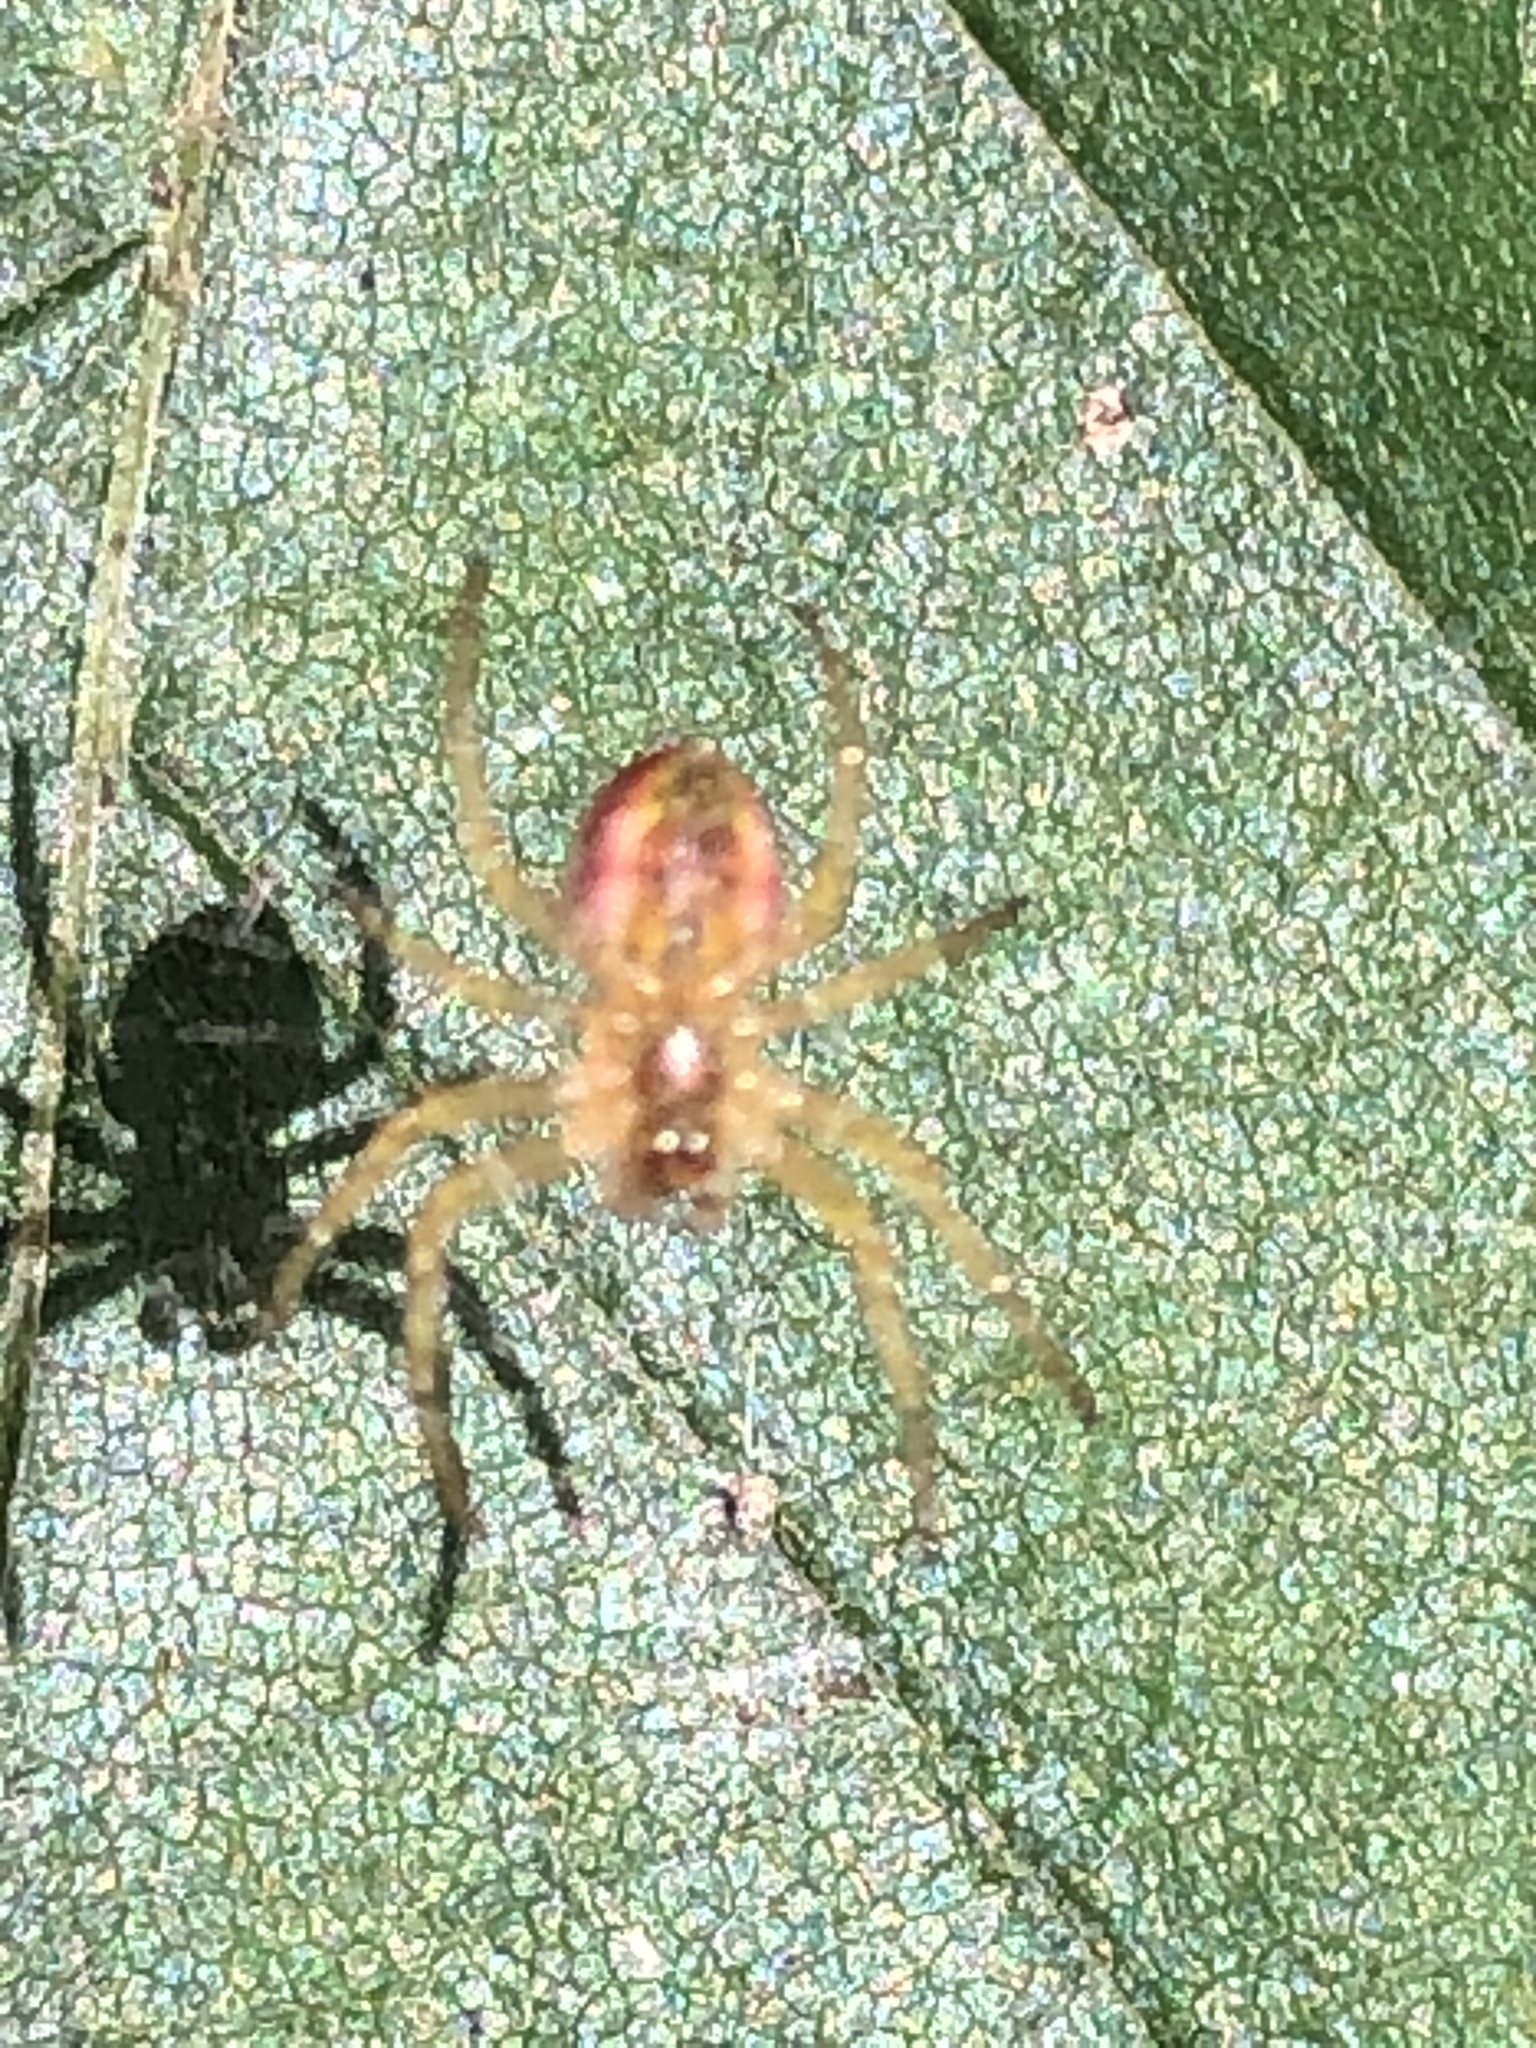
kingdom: Animalia
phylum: Arthropoda
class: Arachnida
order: Araneae
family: Araneidae
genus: Araniella
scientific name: Araniella displicata
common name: Sixspotted orb weaver
